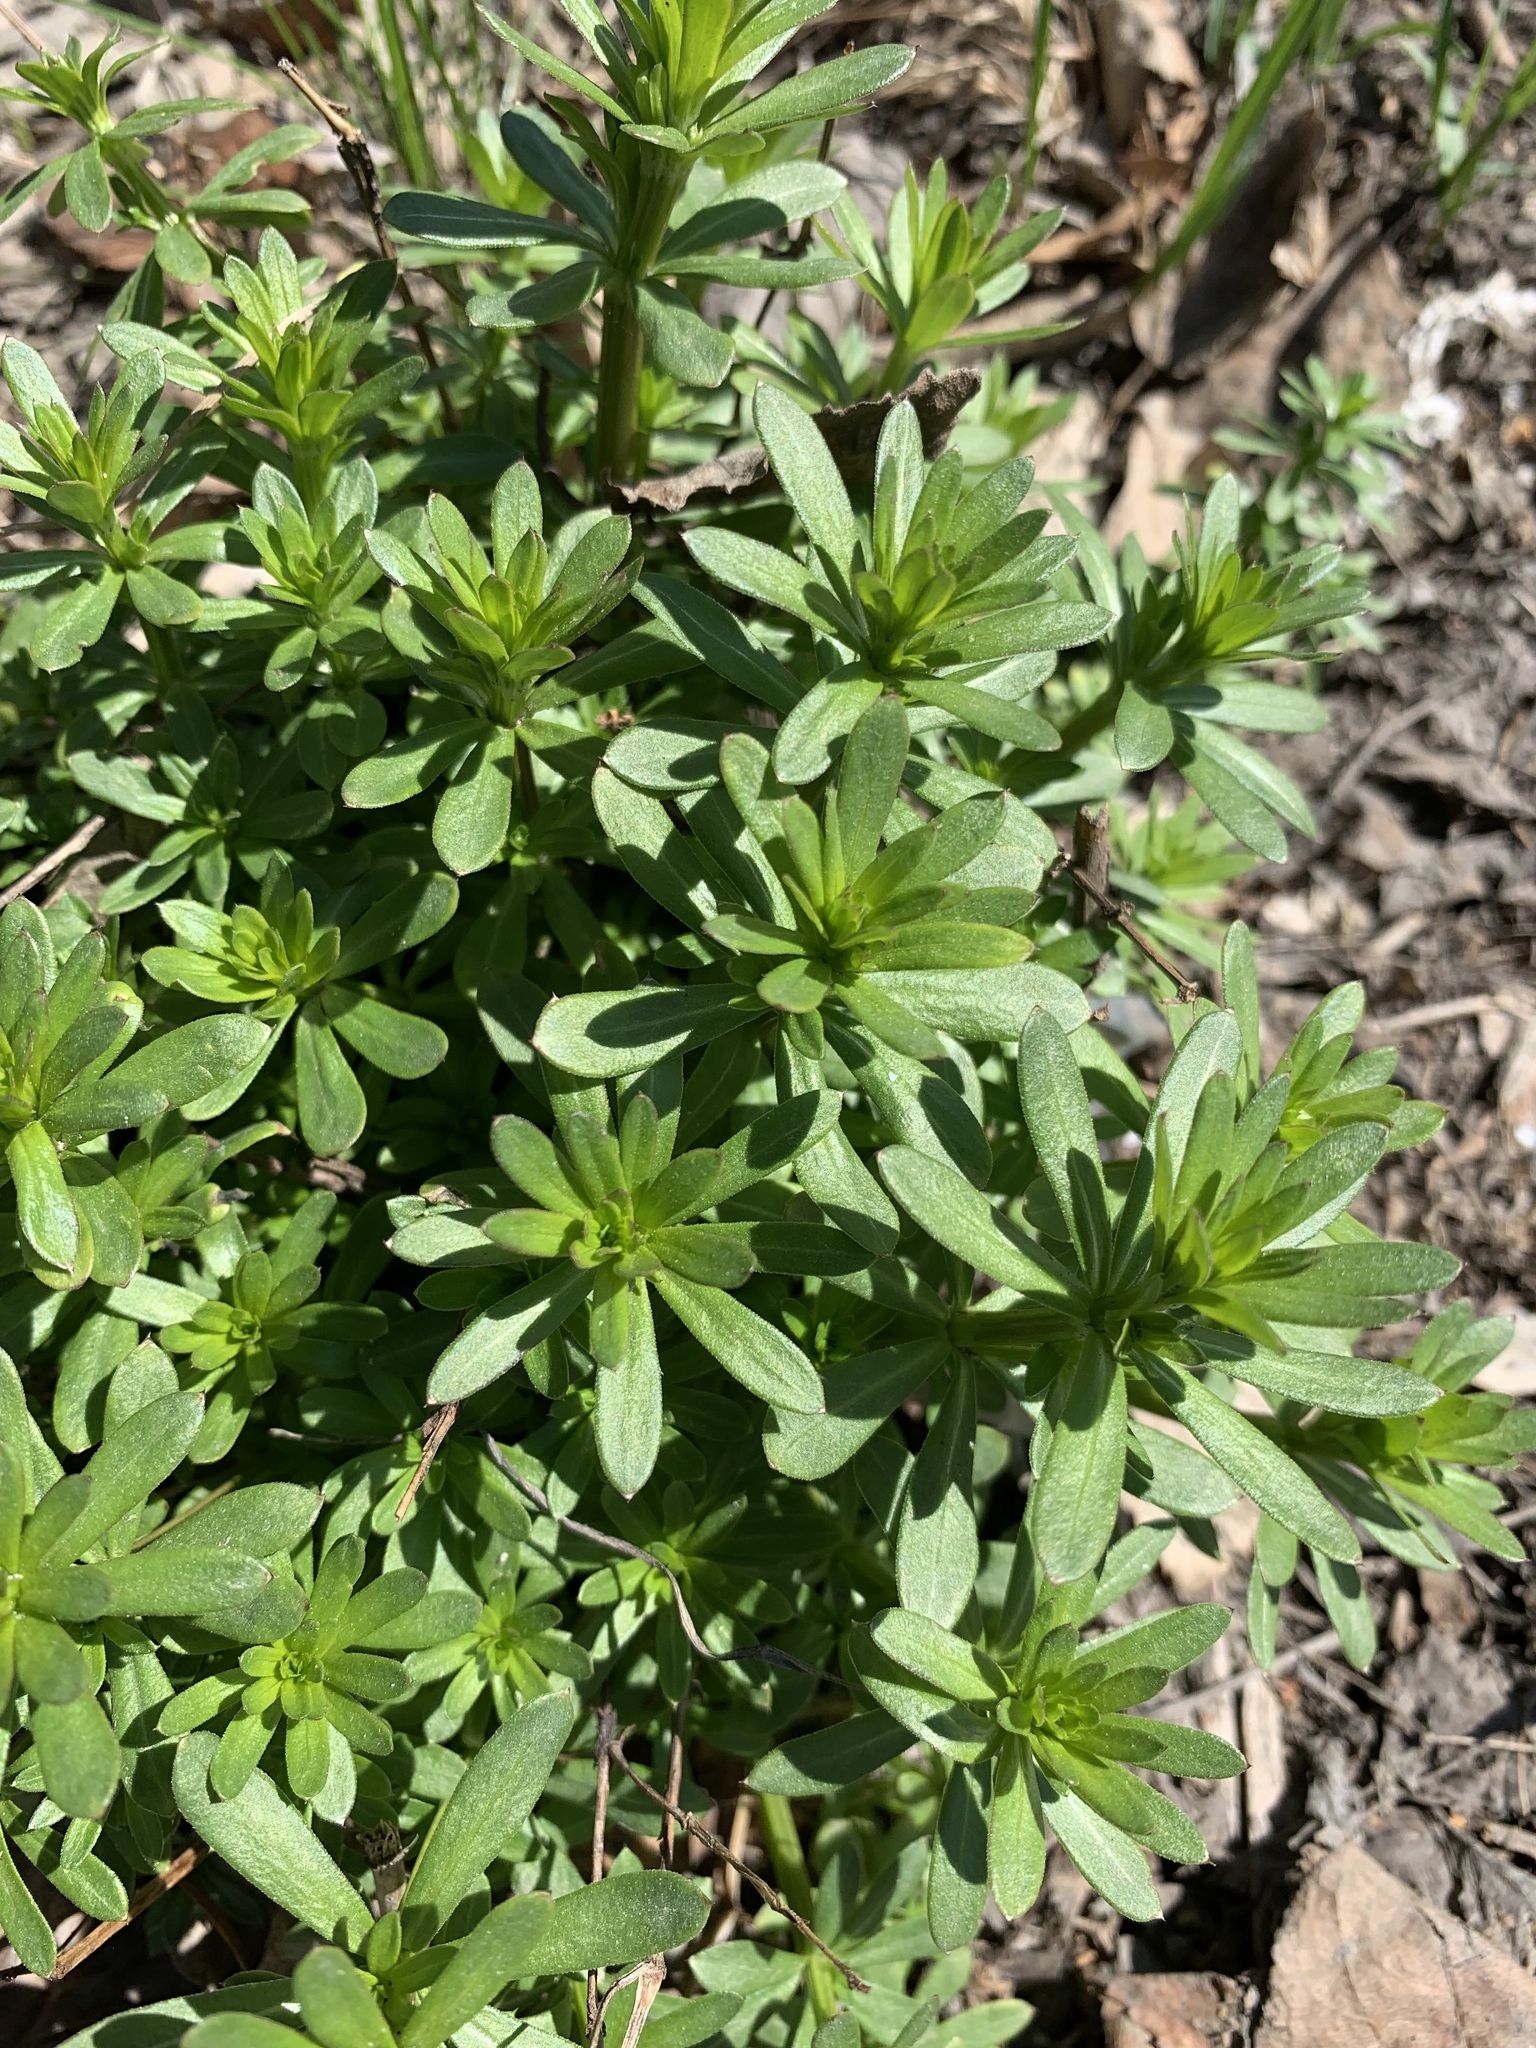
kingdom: Plantae
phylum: Tracheophyta
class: Magnoliopsida
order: Gentianales
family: Rubiaceae
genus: Galium
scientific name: Galium mollugo
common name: Hedge bedstraw
